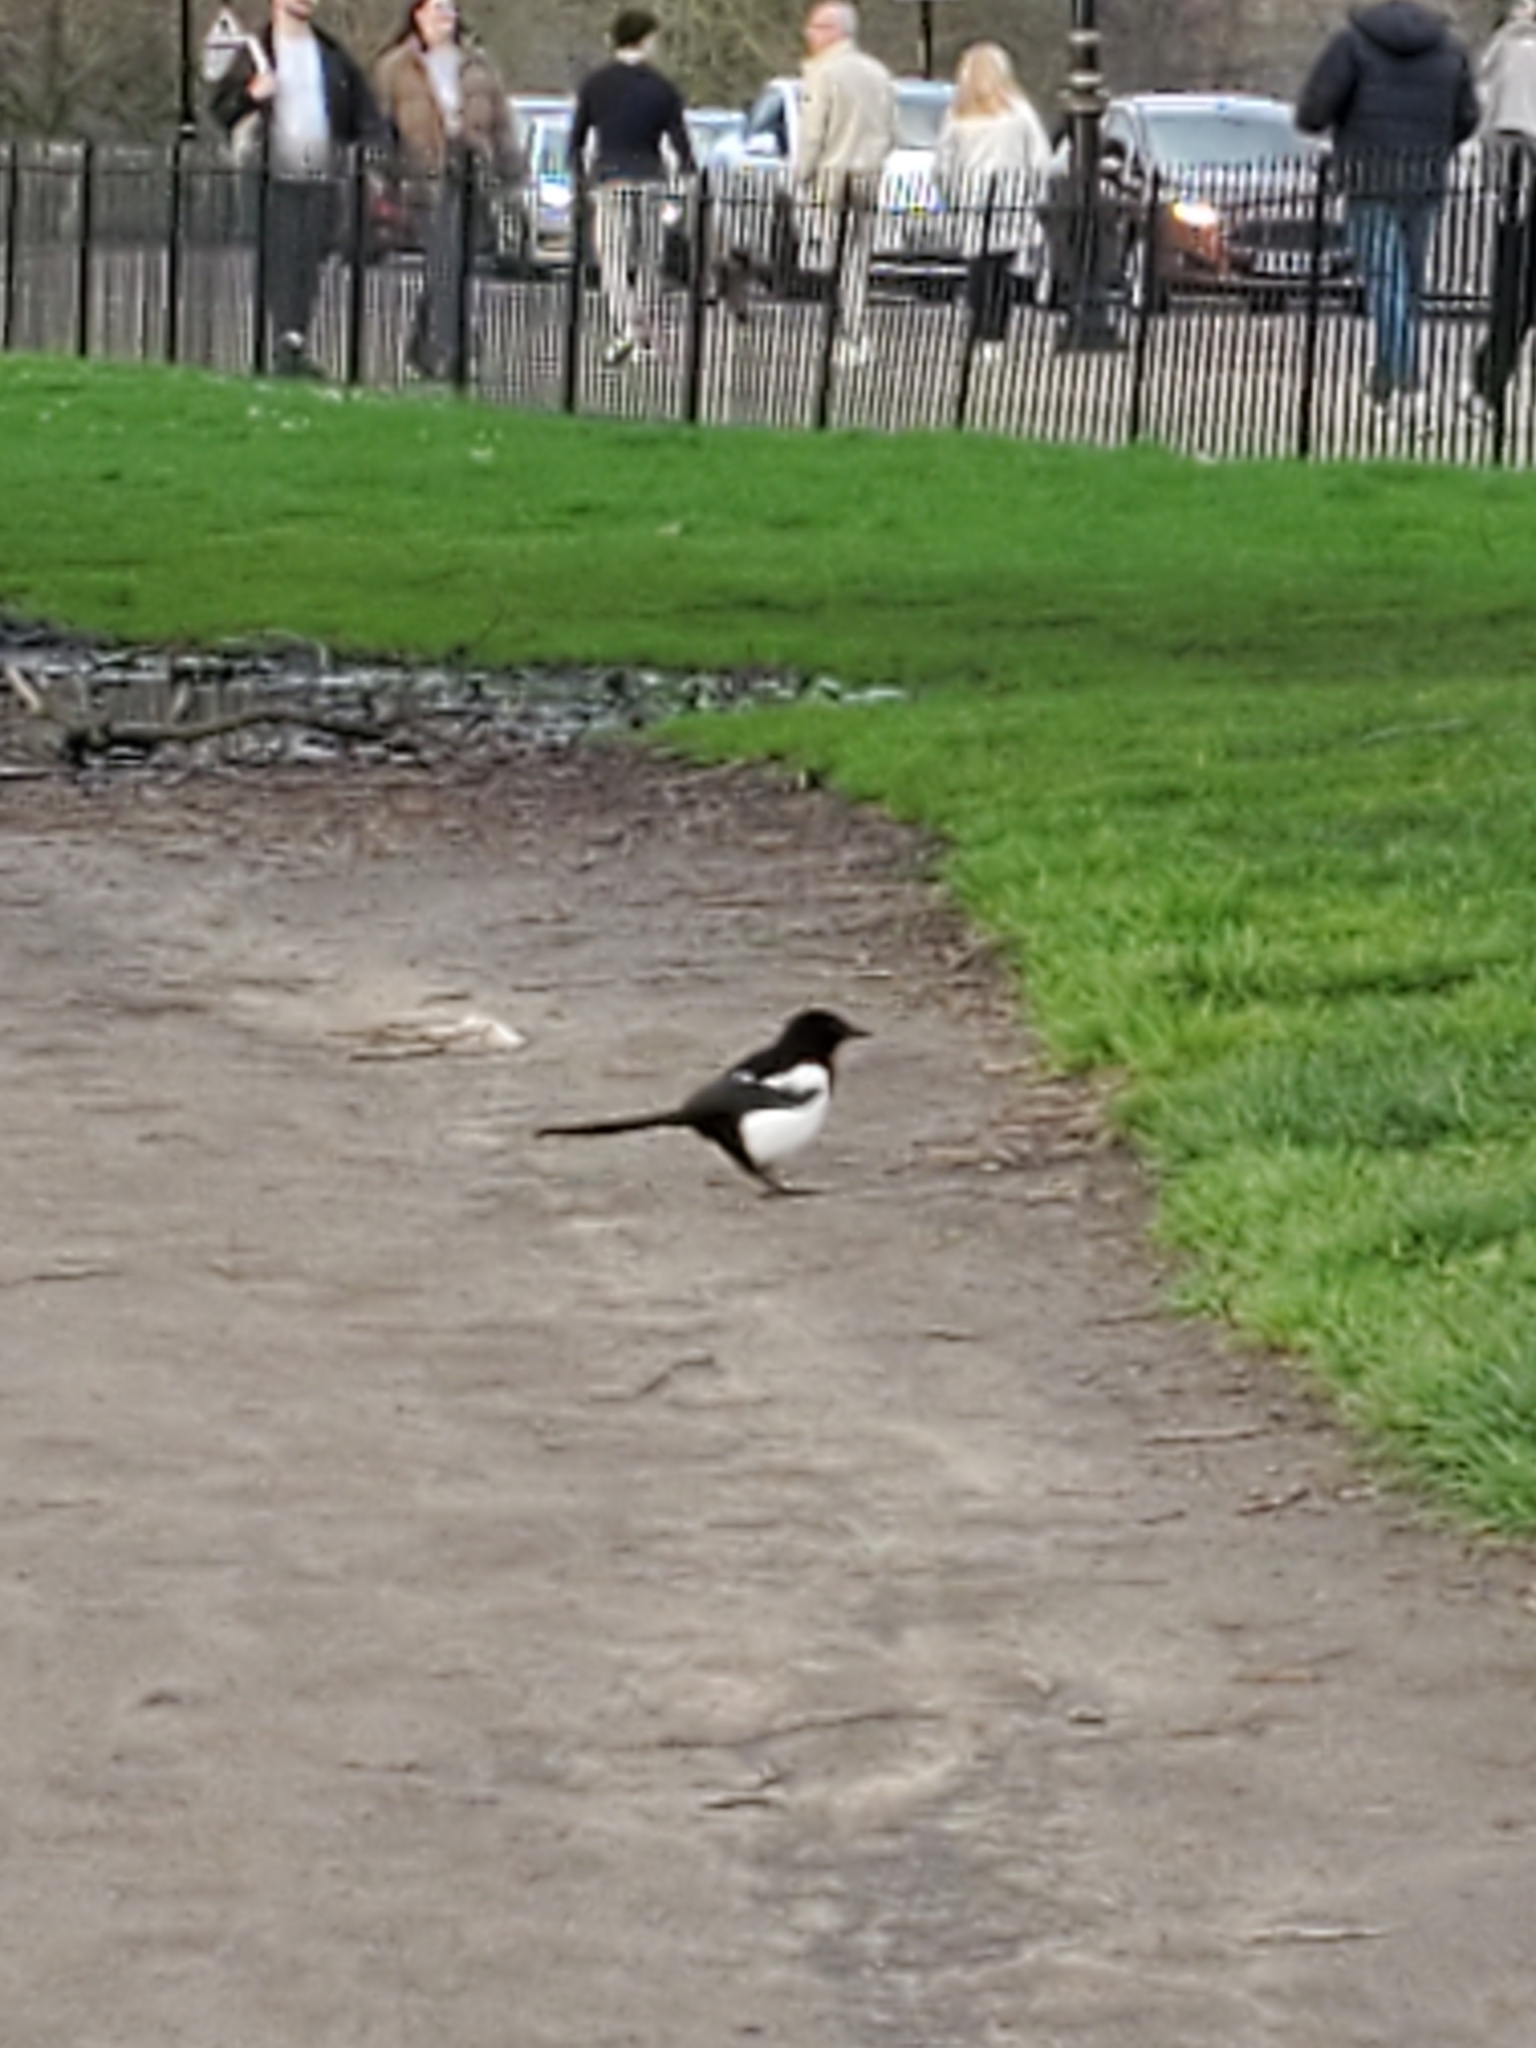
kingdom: Animalia
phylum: Chordata
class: Aves
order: Passeriformes
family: Corvidae
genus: Pica
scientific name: Pica pica
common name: Eurasian magpie
